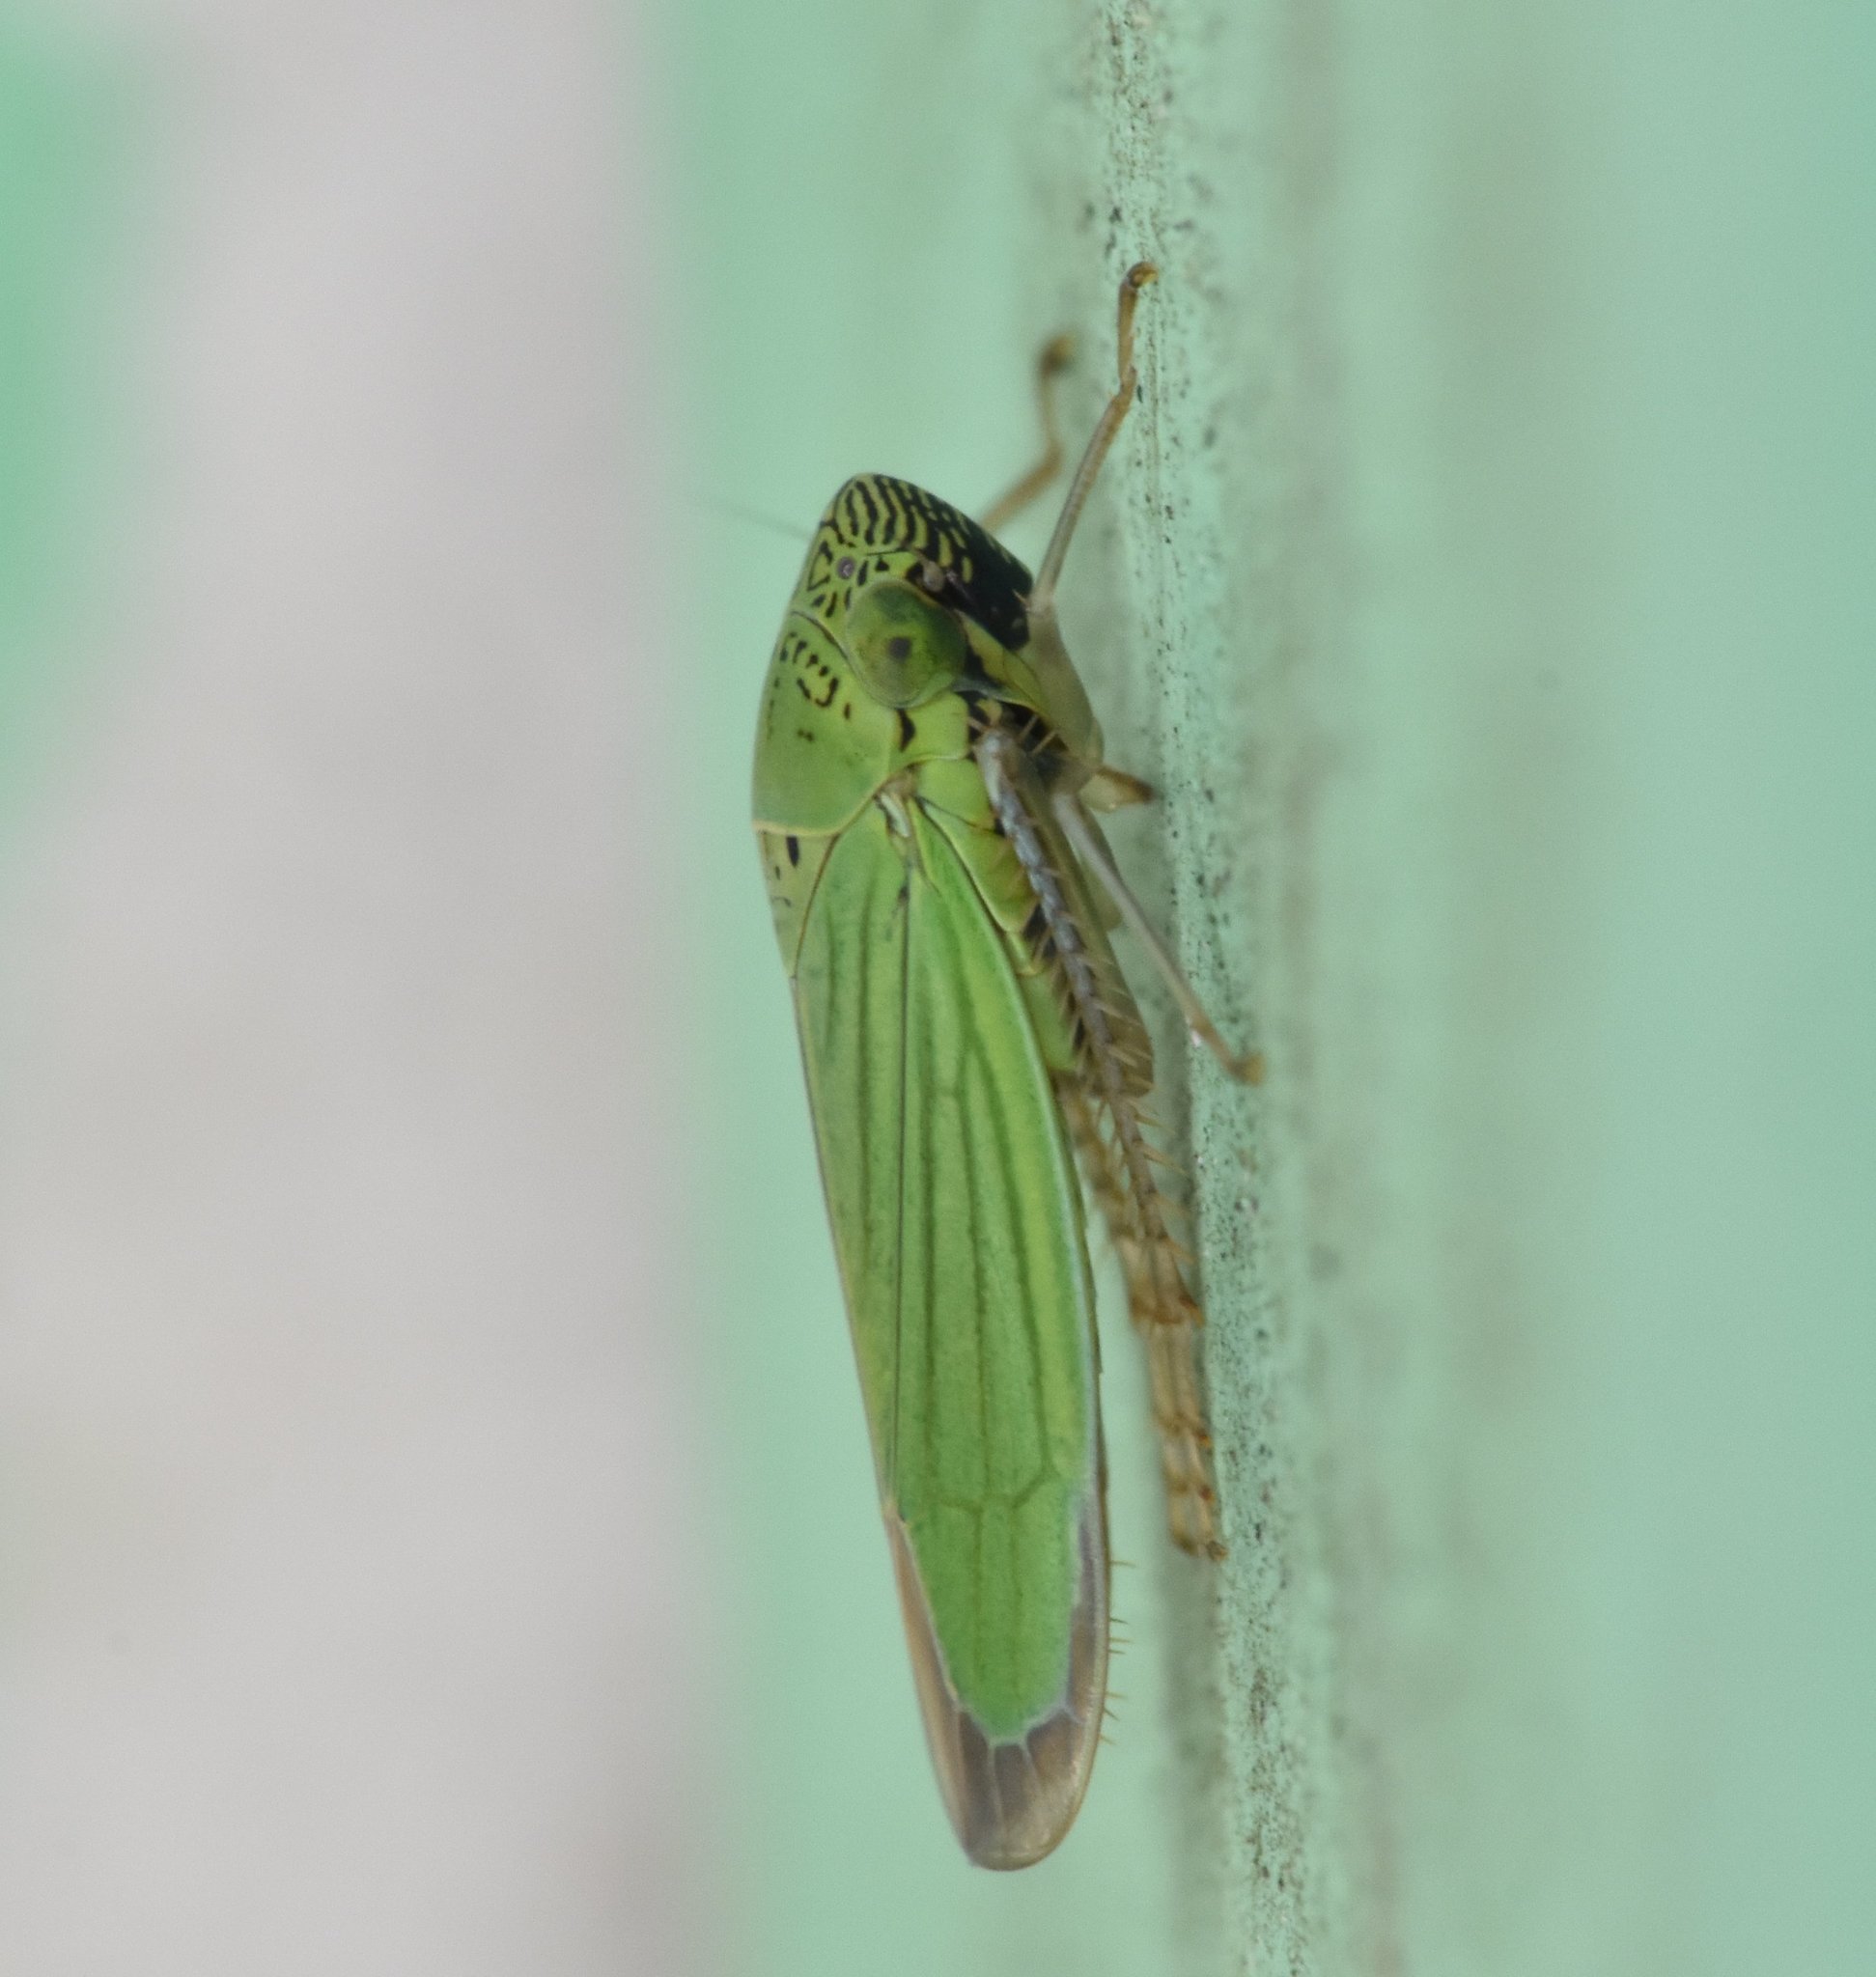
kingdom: Animalia
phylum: Arthropoda
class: Insecta
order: Hemiptera
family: Cicadellidae
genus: Hortensia
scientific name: Hortensia similis
